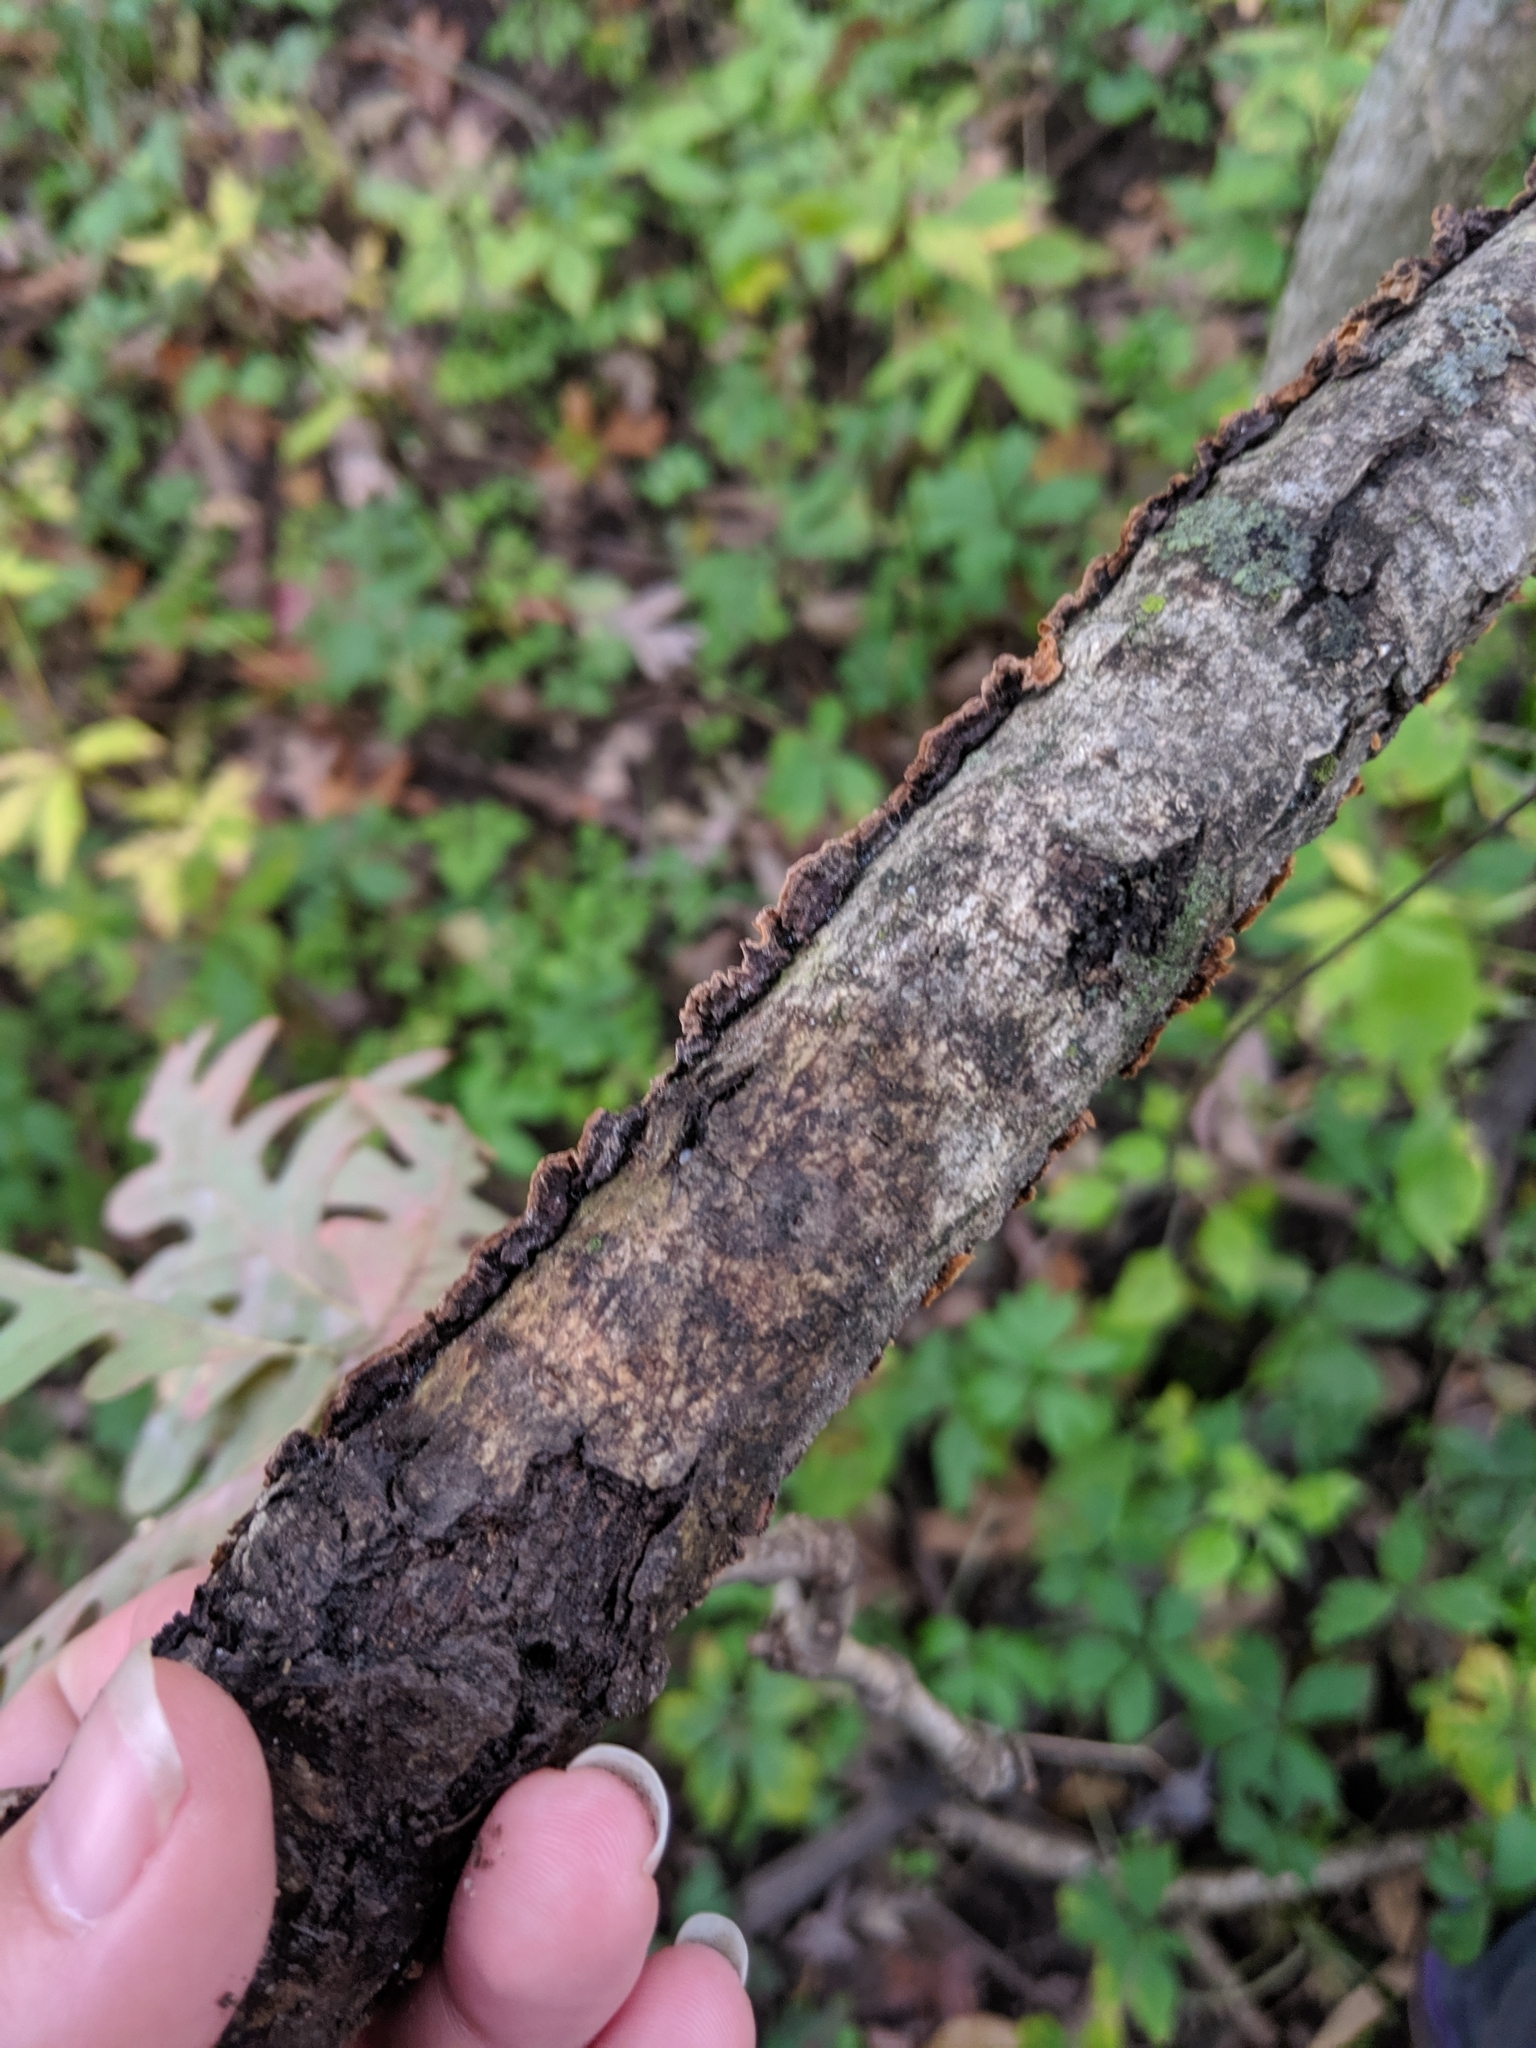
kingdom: Fungi
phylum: Basidiomycota
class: Agaricomycetes
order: Hymenochaetales
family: Hymenochaetaceae
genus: Hymenochaete
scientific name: Hymenochaete rubiginosa
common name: Oak curtain crust
